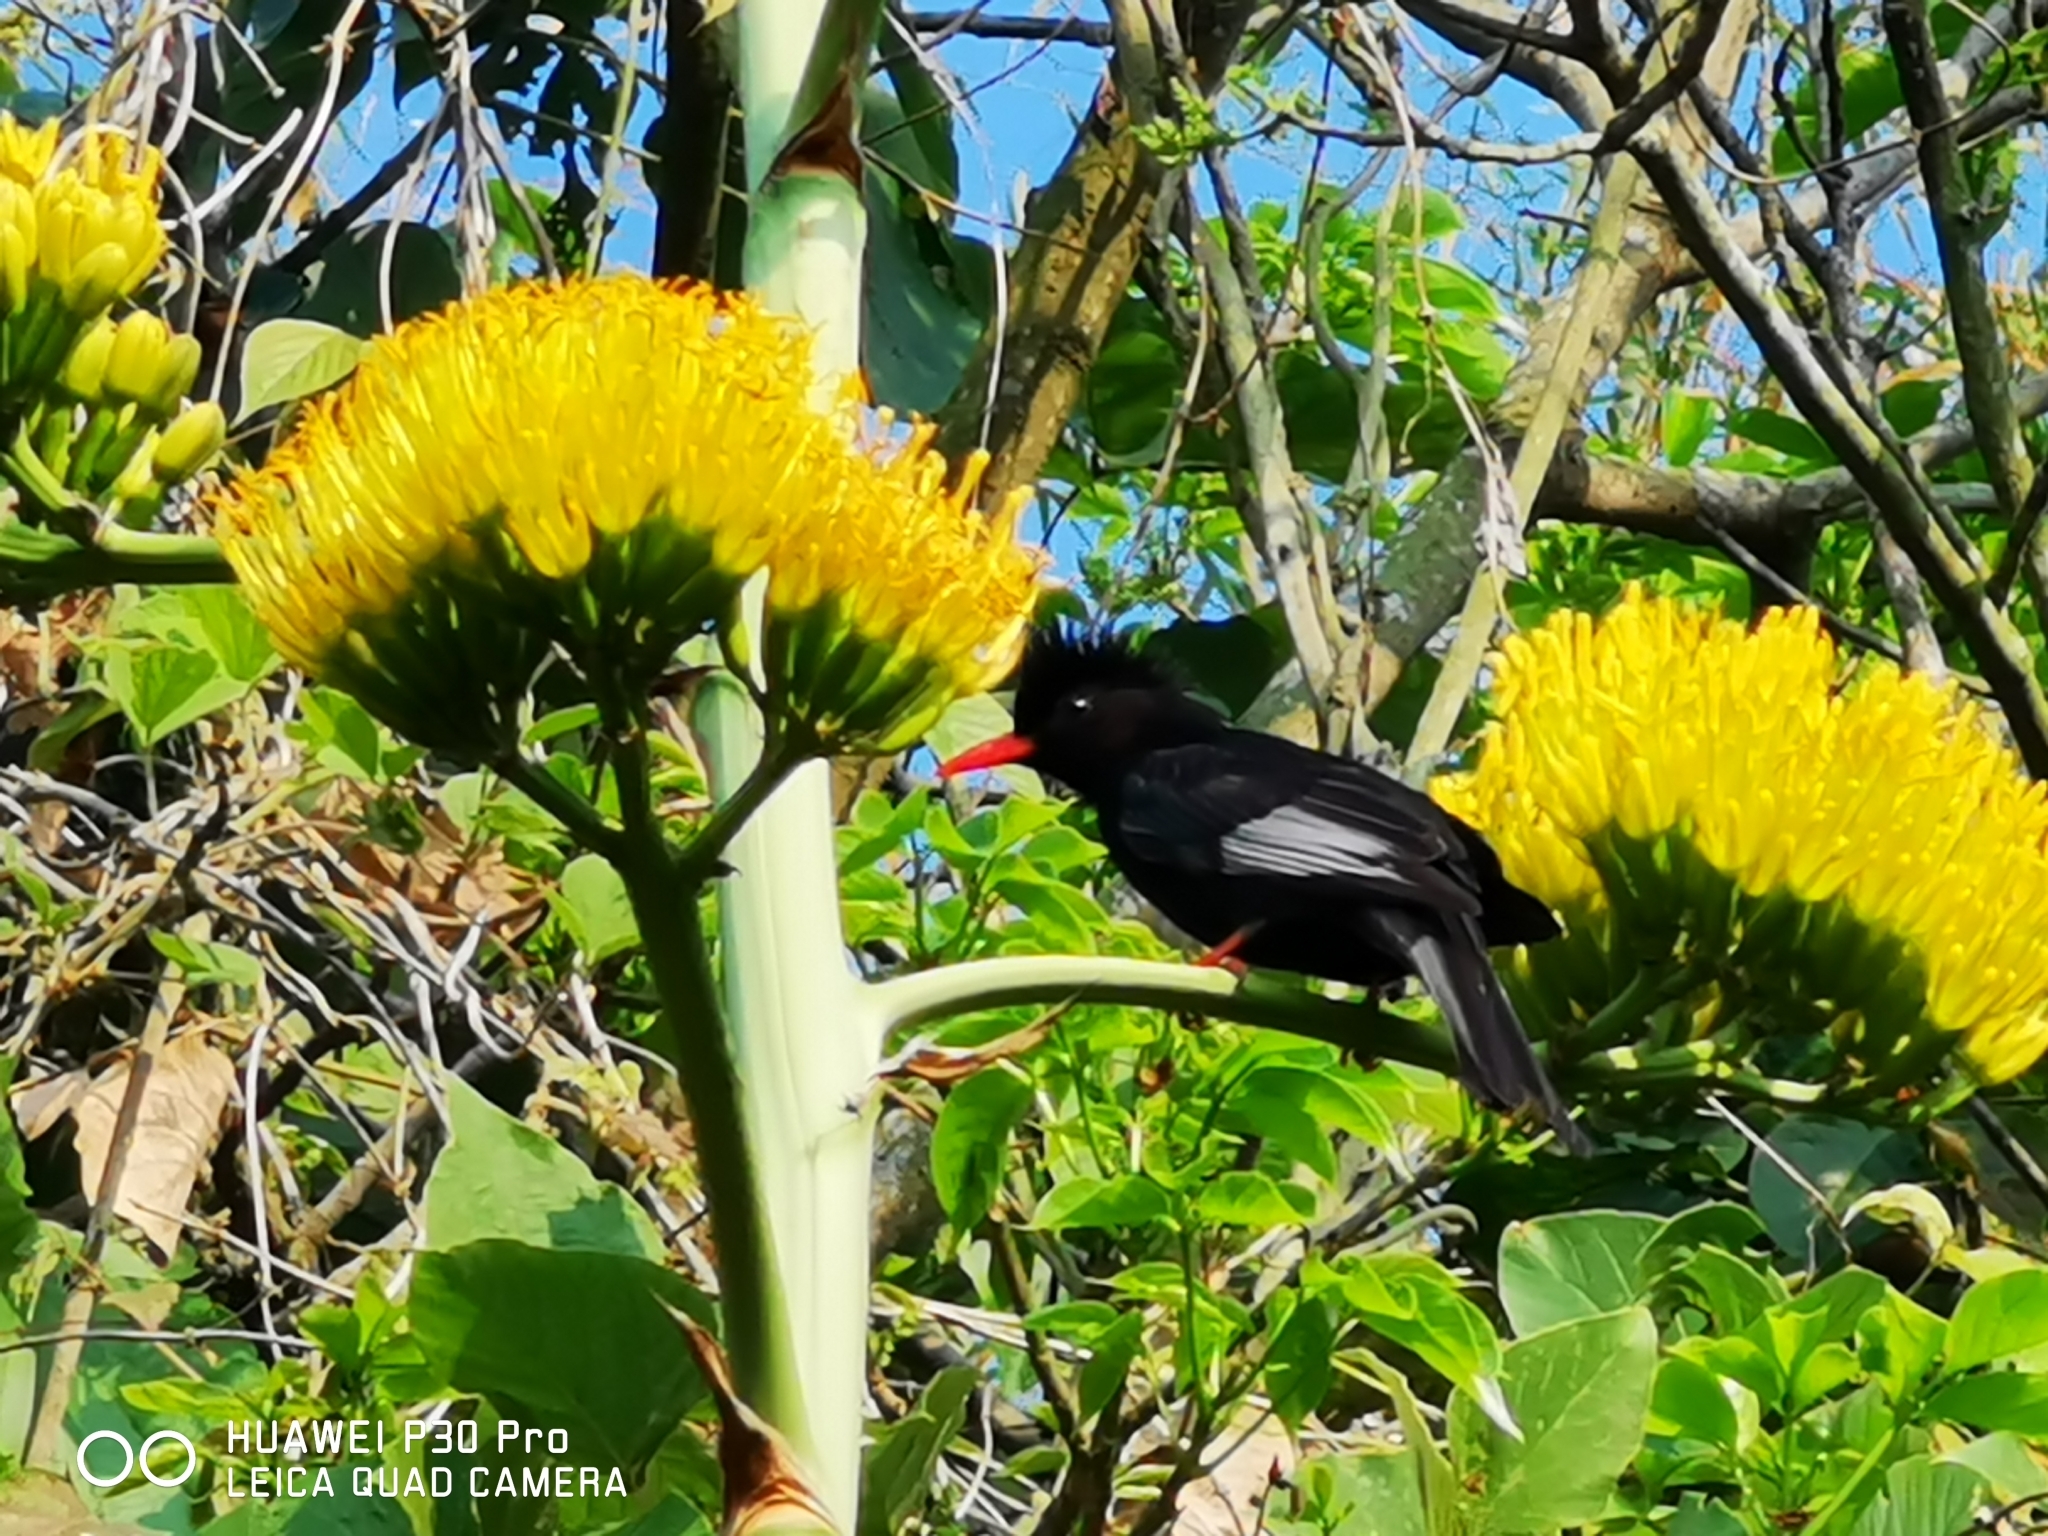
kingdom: Animalia
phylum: Chordata
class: Aves
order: Passeriformes
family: Pycnonotidae
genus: Hypsipetes
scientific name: Hypsipetes leucocephalus
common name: Black bulbul
